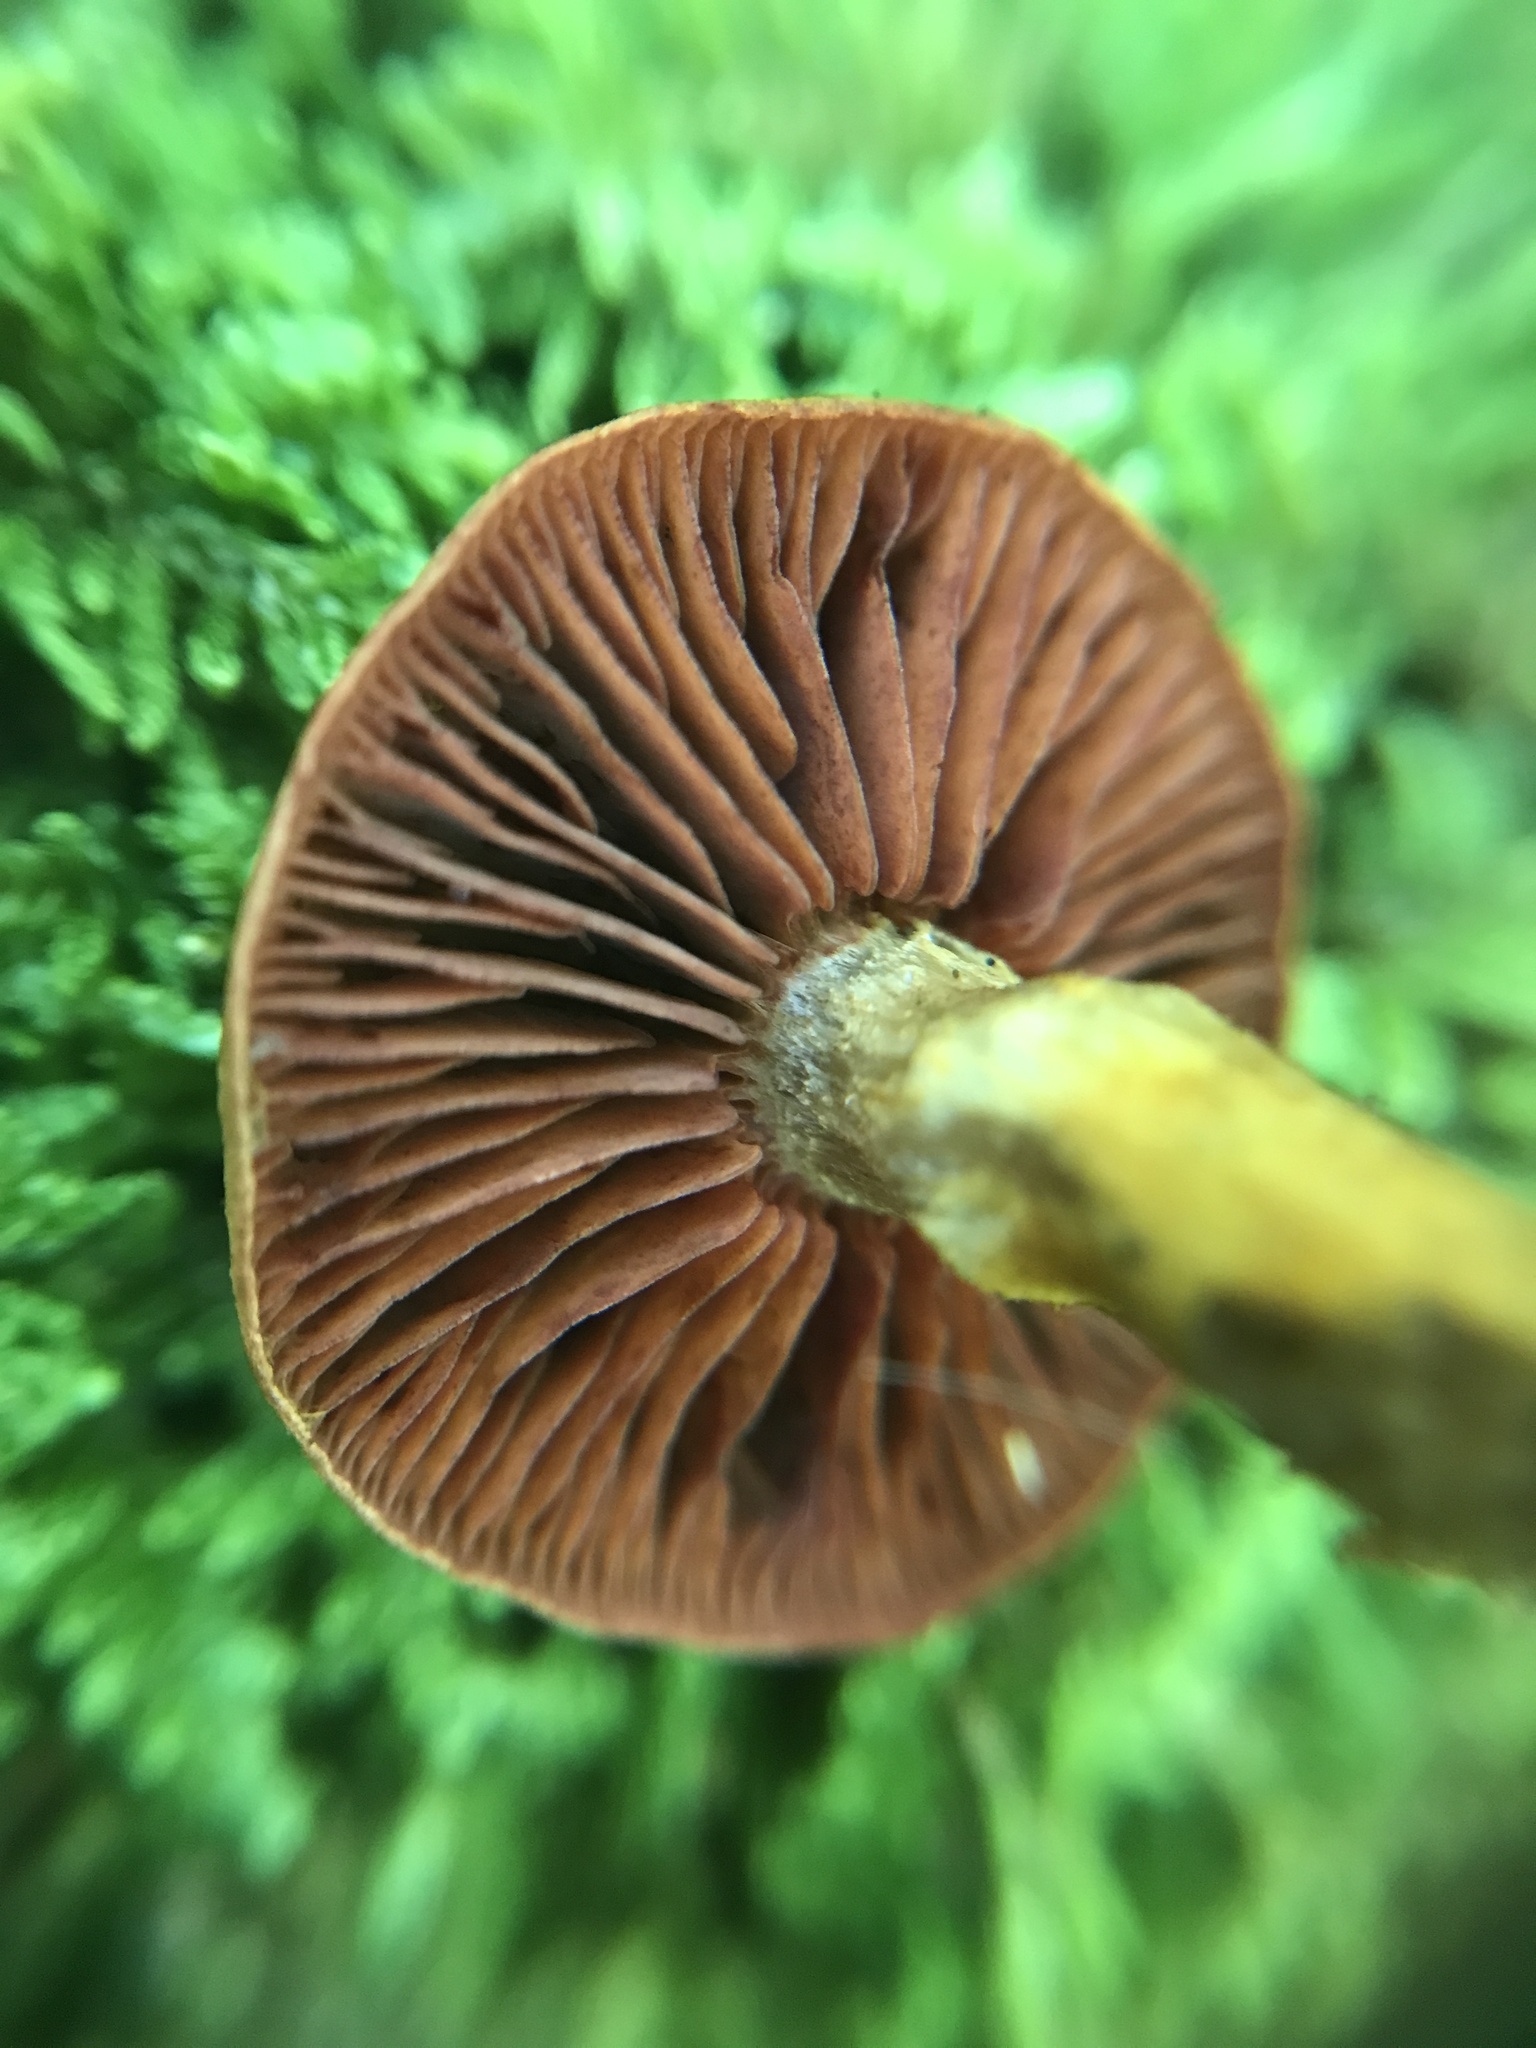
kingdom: Fungi
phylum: Basidiomycota
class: Agaricomycetes
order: Agaricales
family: Cortinariaceae
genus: Cortinarius
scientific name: Cortinarius semisanguineus
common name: Surprise webcap
